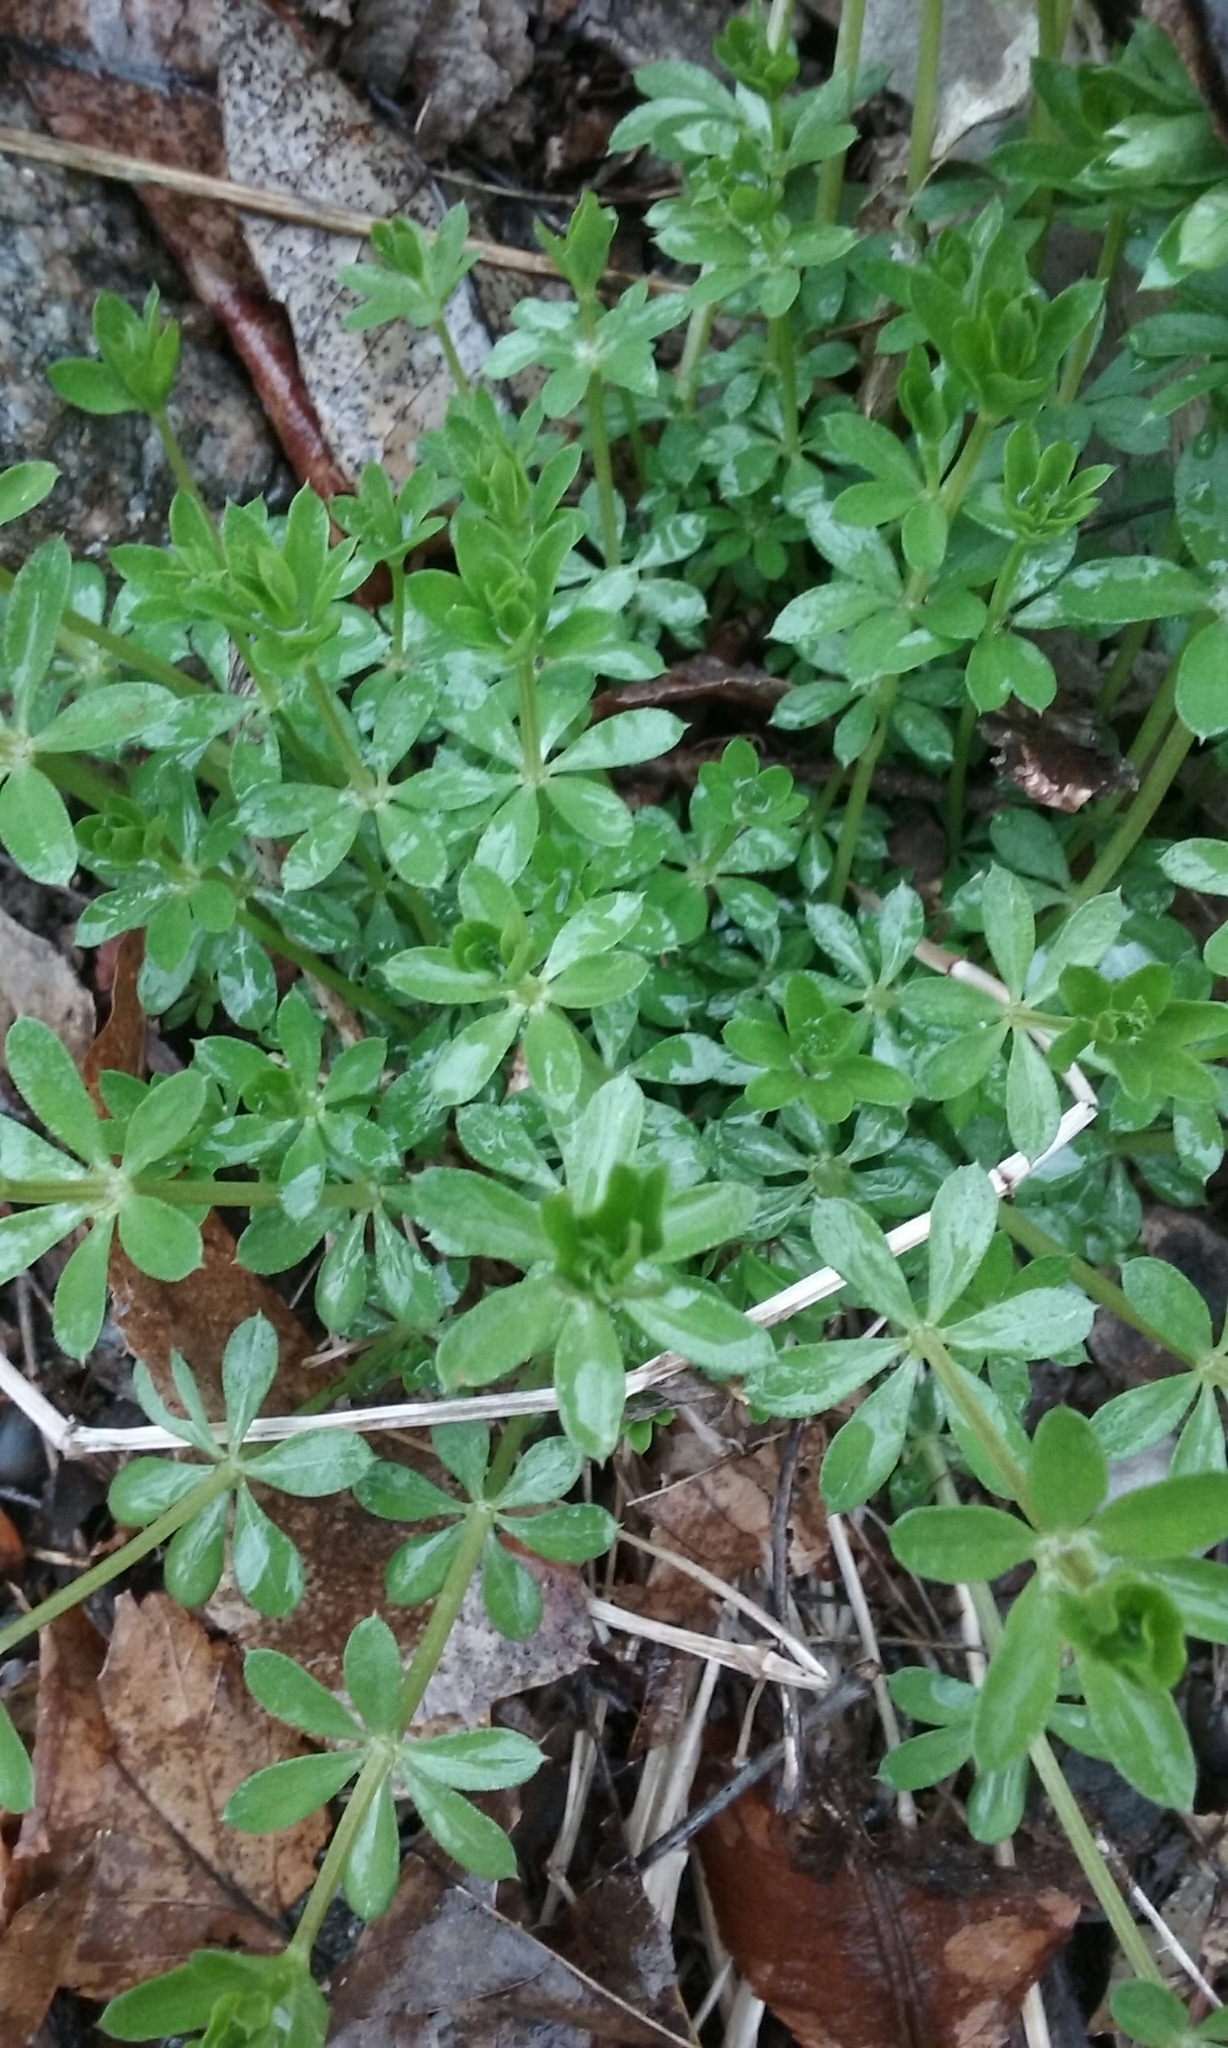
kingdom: Plantae
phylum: Tracheophyta
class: Magnoliopsida
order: Gentianales
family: Rubiaceae
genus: Galium
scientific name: Galium mollugo
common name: Hedge bedstraw
